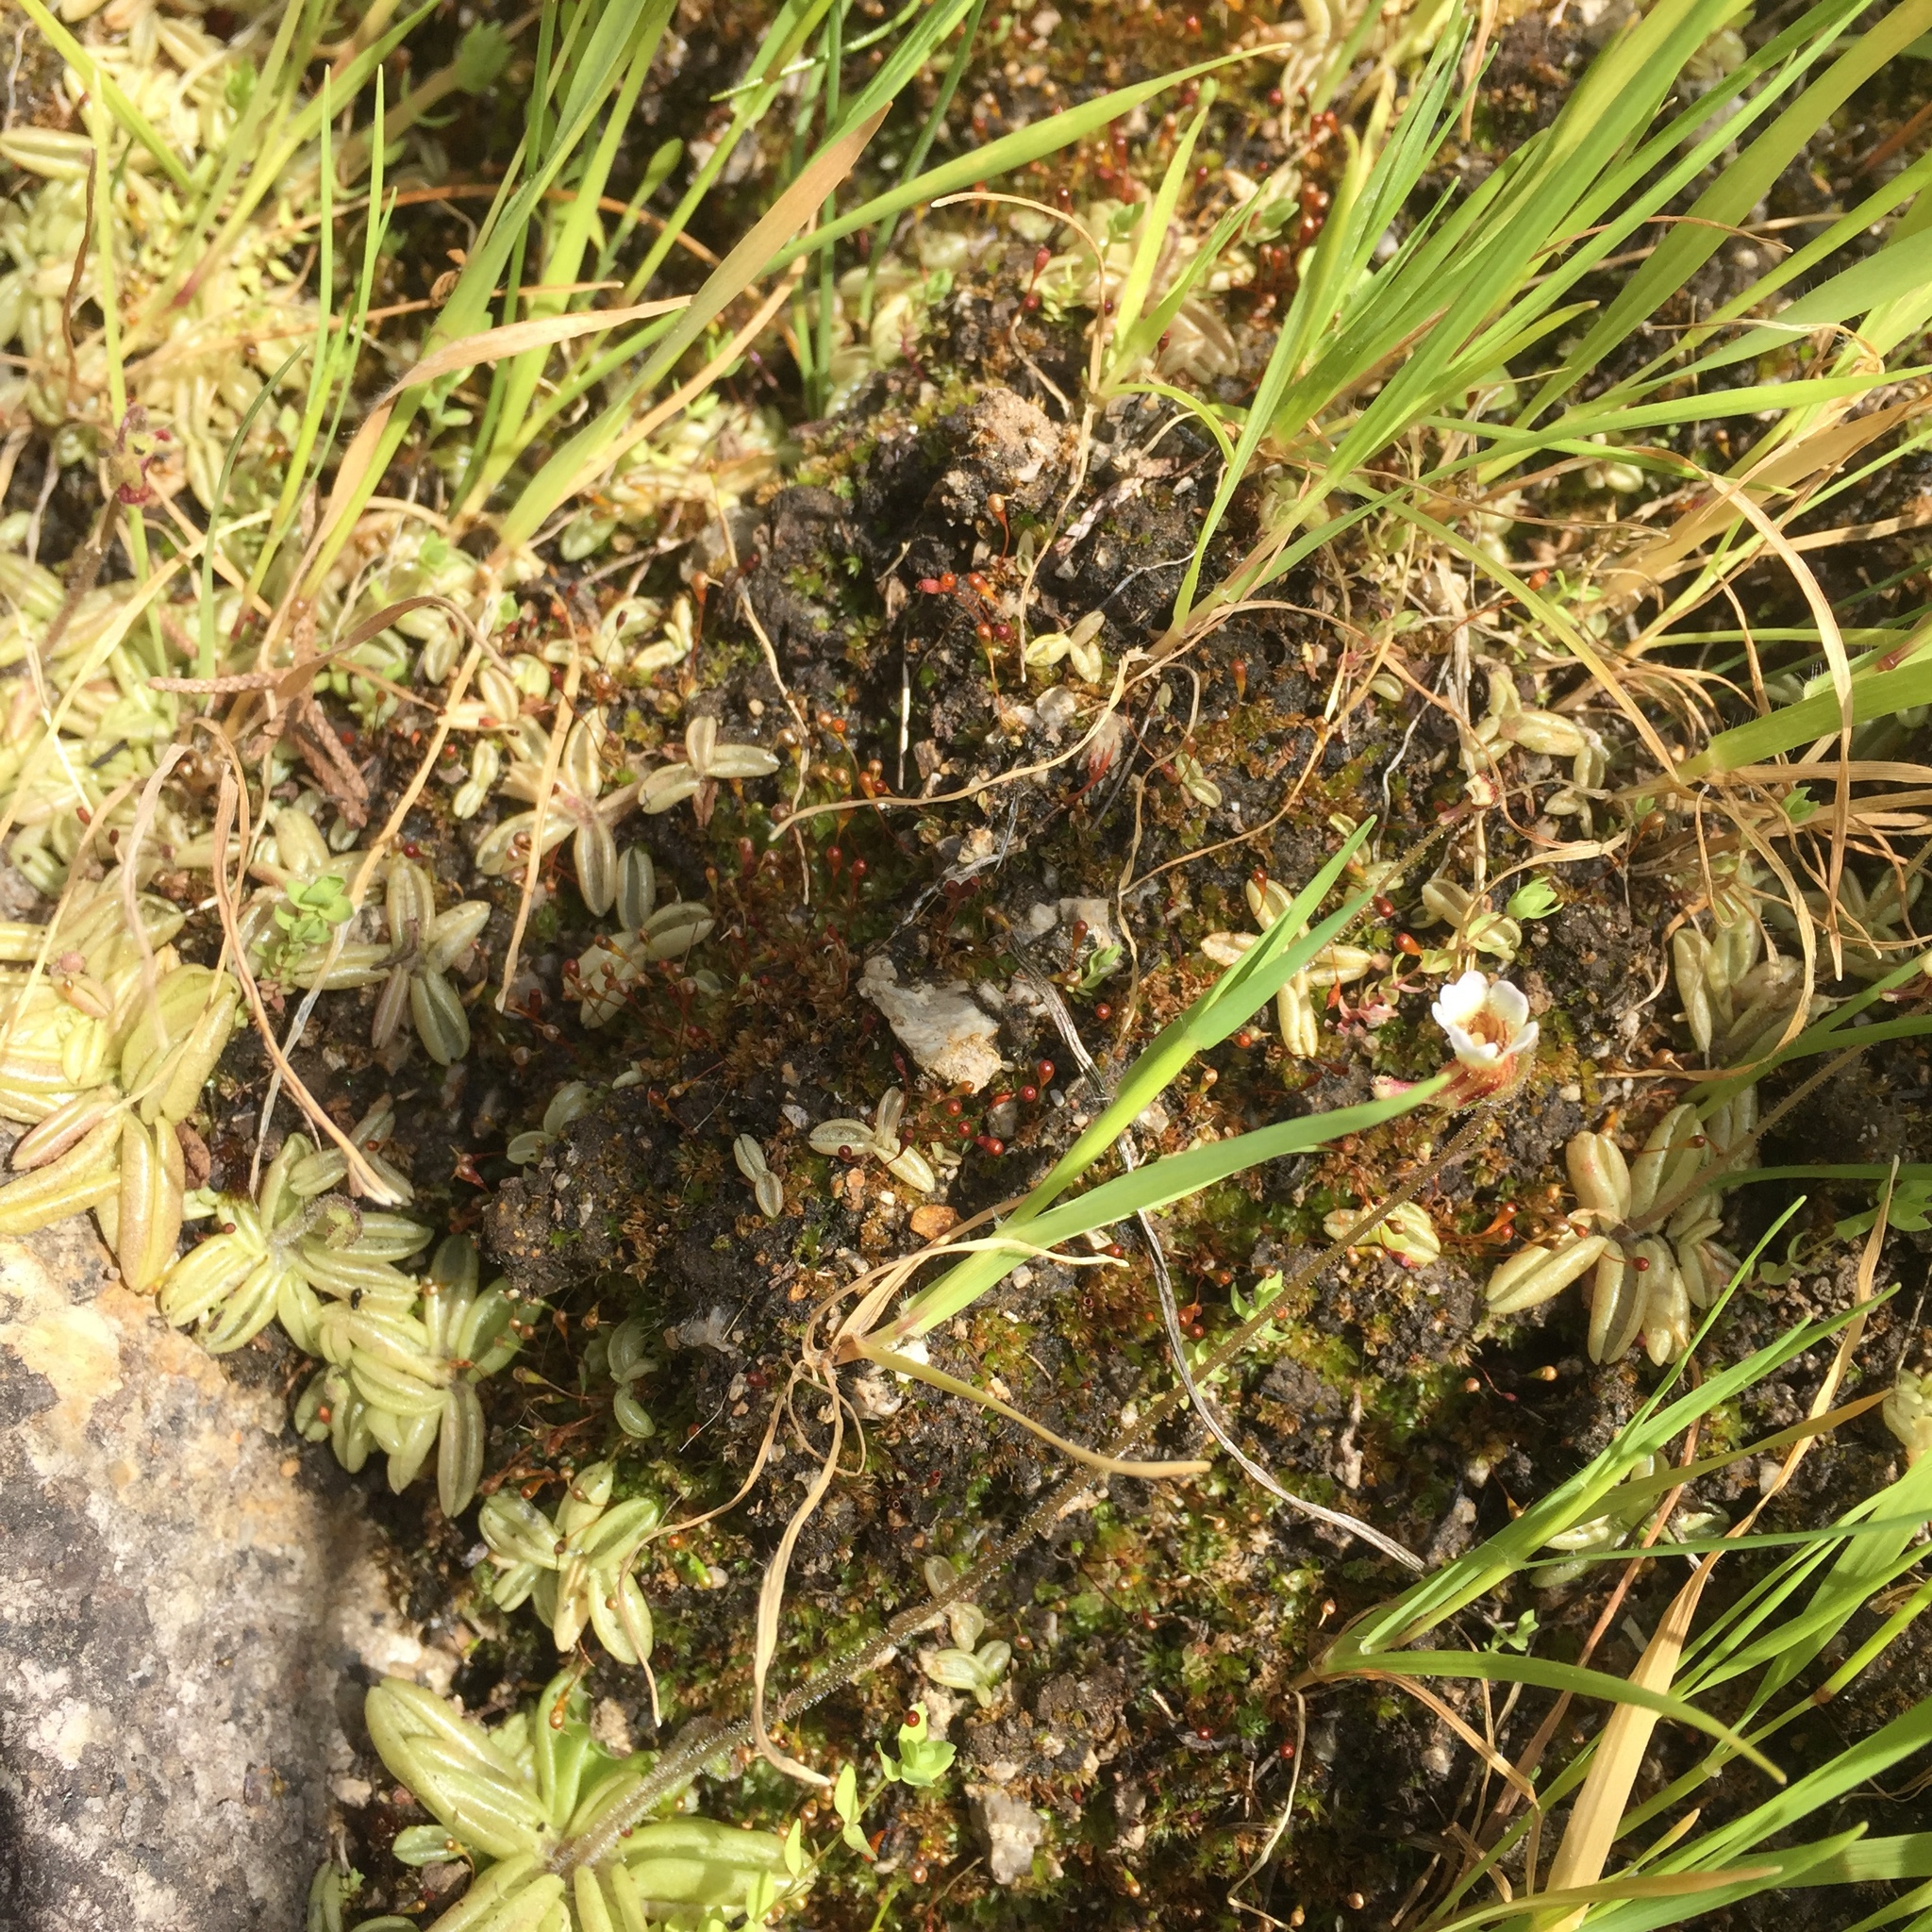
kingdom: Plantae
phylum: Tracheophyta
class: Magnoliopsida
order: Lamiales
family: Lentibulariaceae
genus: Pinguicula
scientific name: Pinguicula lusitanica
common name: Pale butterwort
